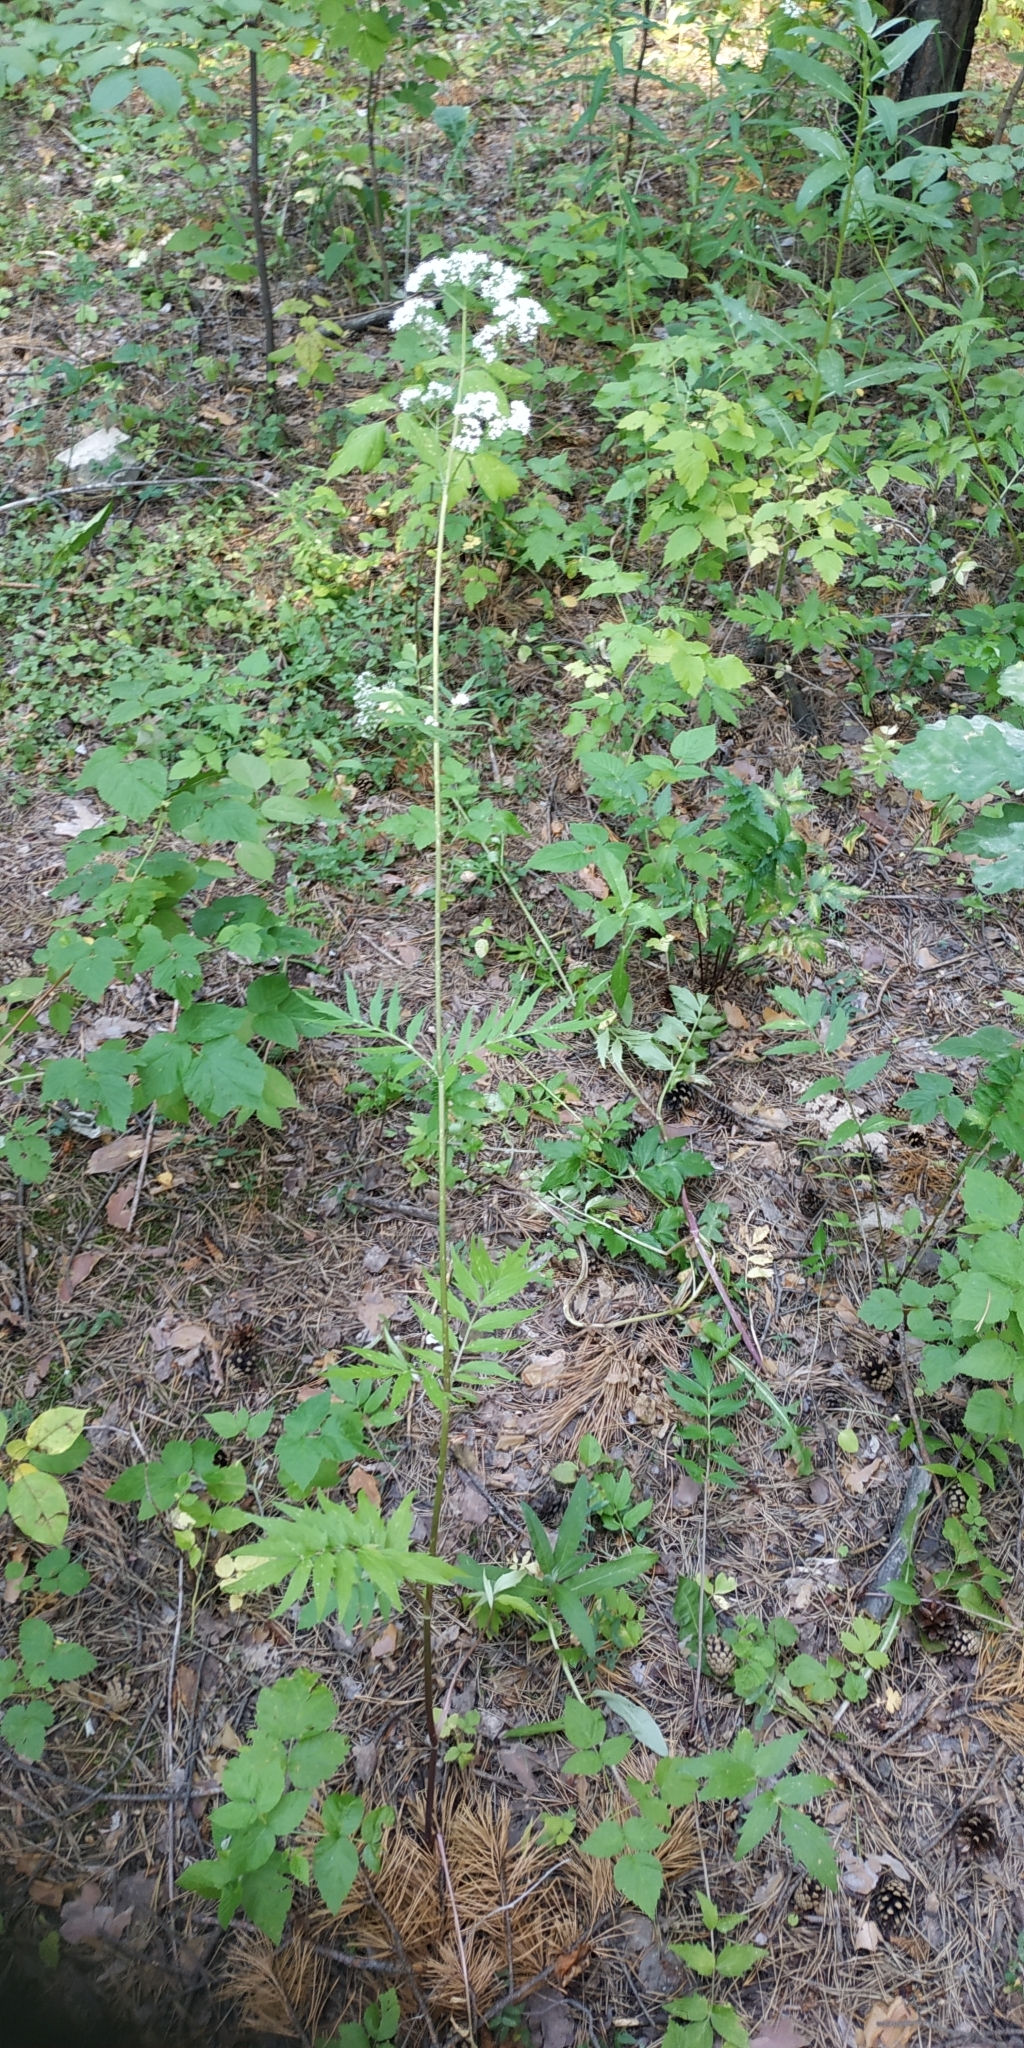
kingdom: Plantae
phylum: Tracheophyta
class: Magnoliopsida
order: Dipsacales
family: Caprifoliaceae
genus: Valeriana
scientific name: Valeriana wolgensis
